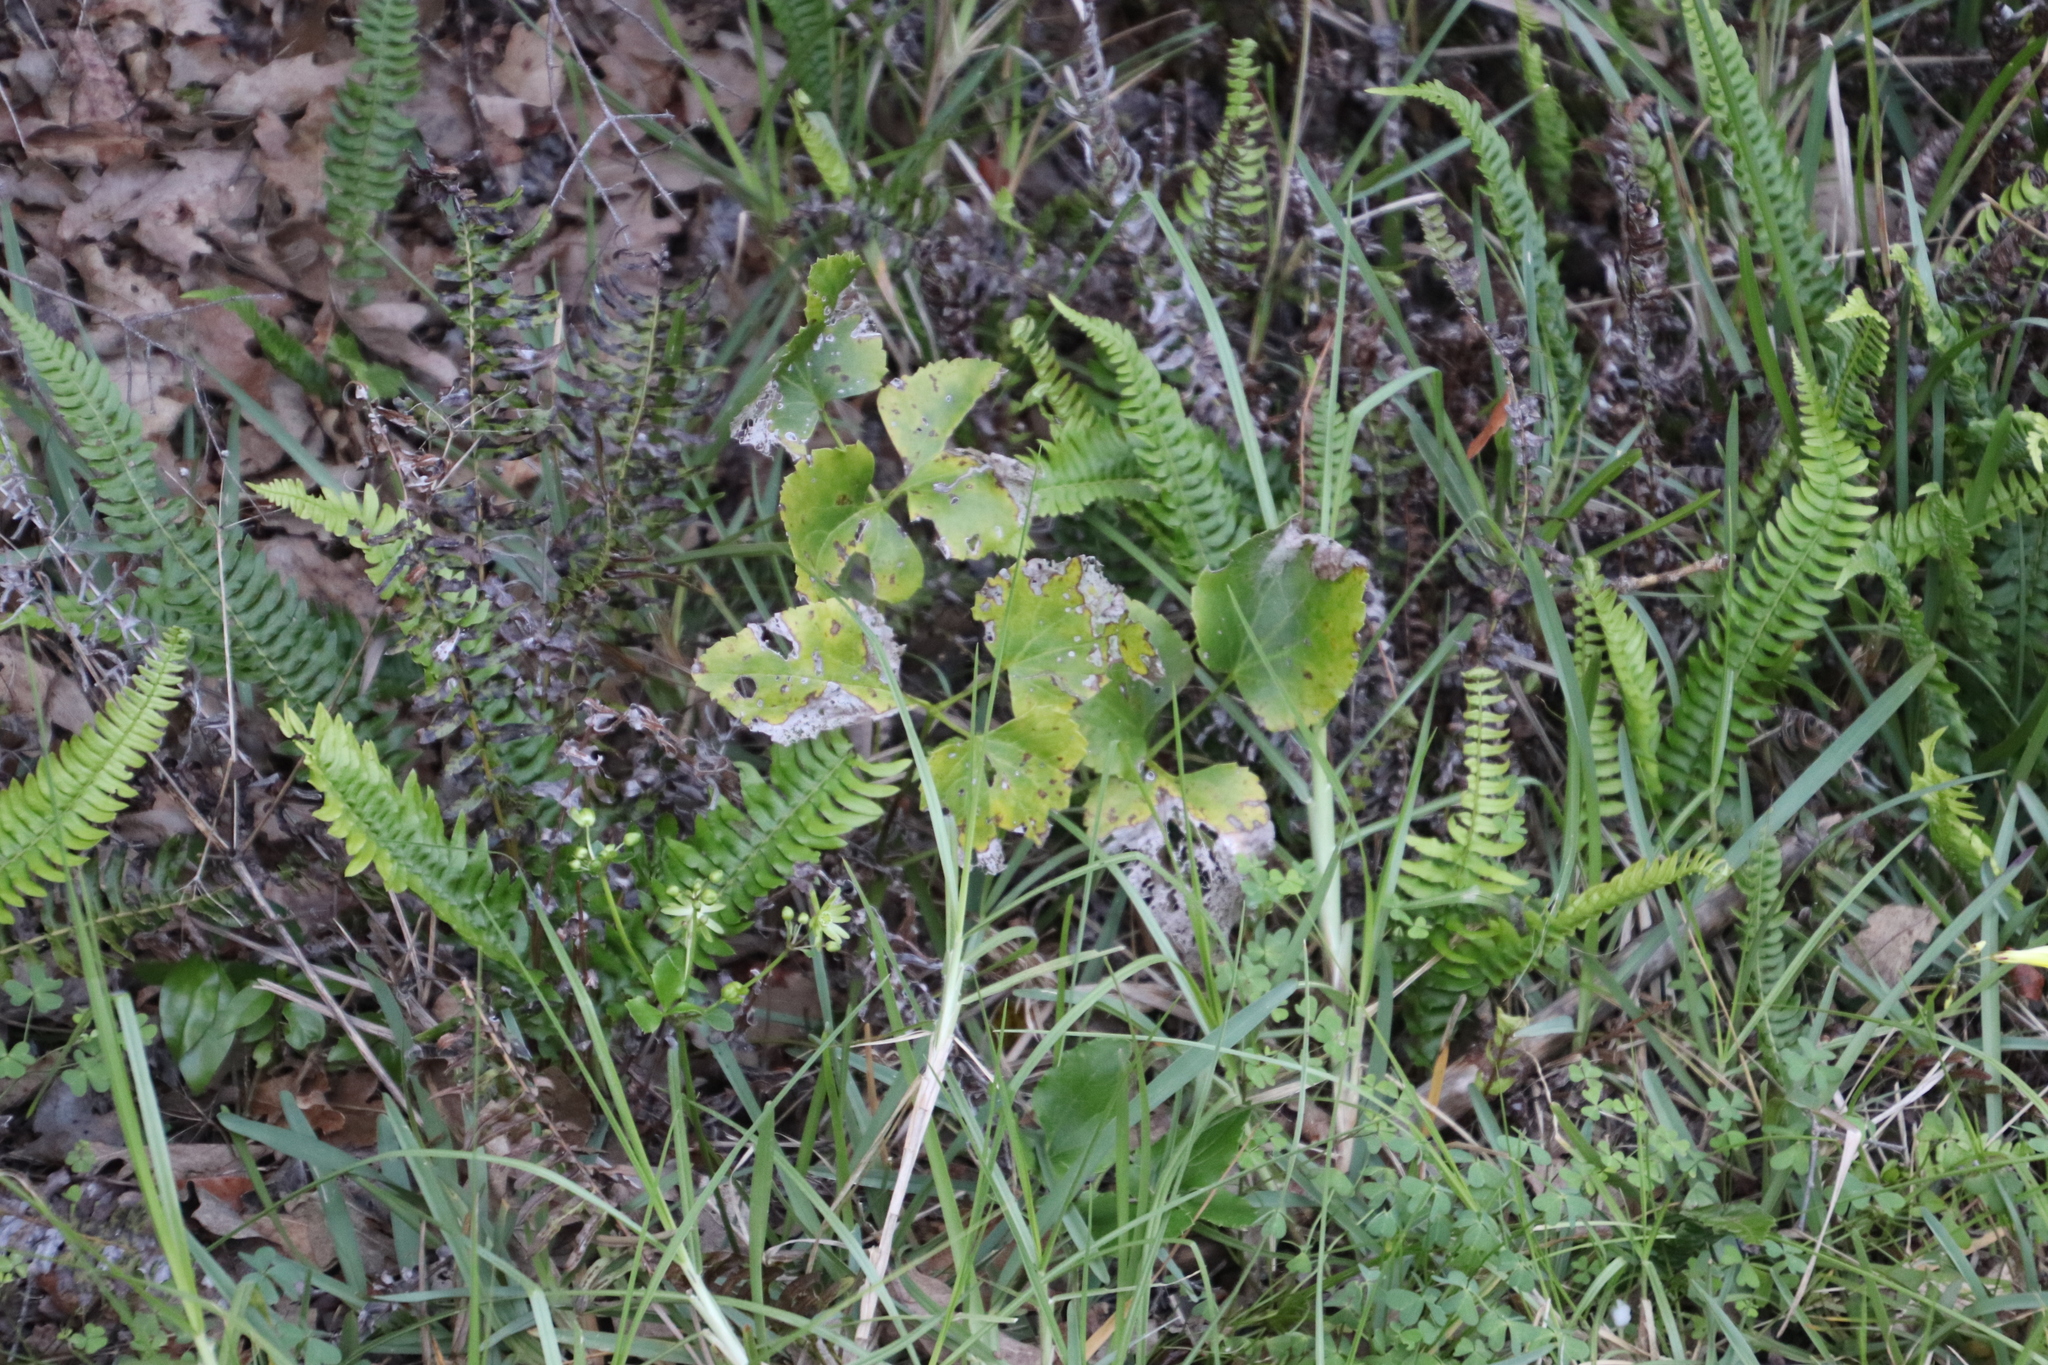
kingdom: Plantae
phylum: Tracheophyta
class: Magnoliopsida
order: Ranunculales
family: Ranunculaceae
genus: Knowltonia
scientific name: Knowltonia vesicatoria
